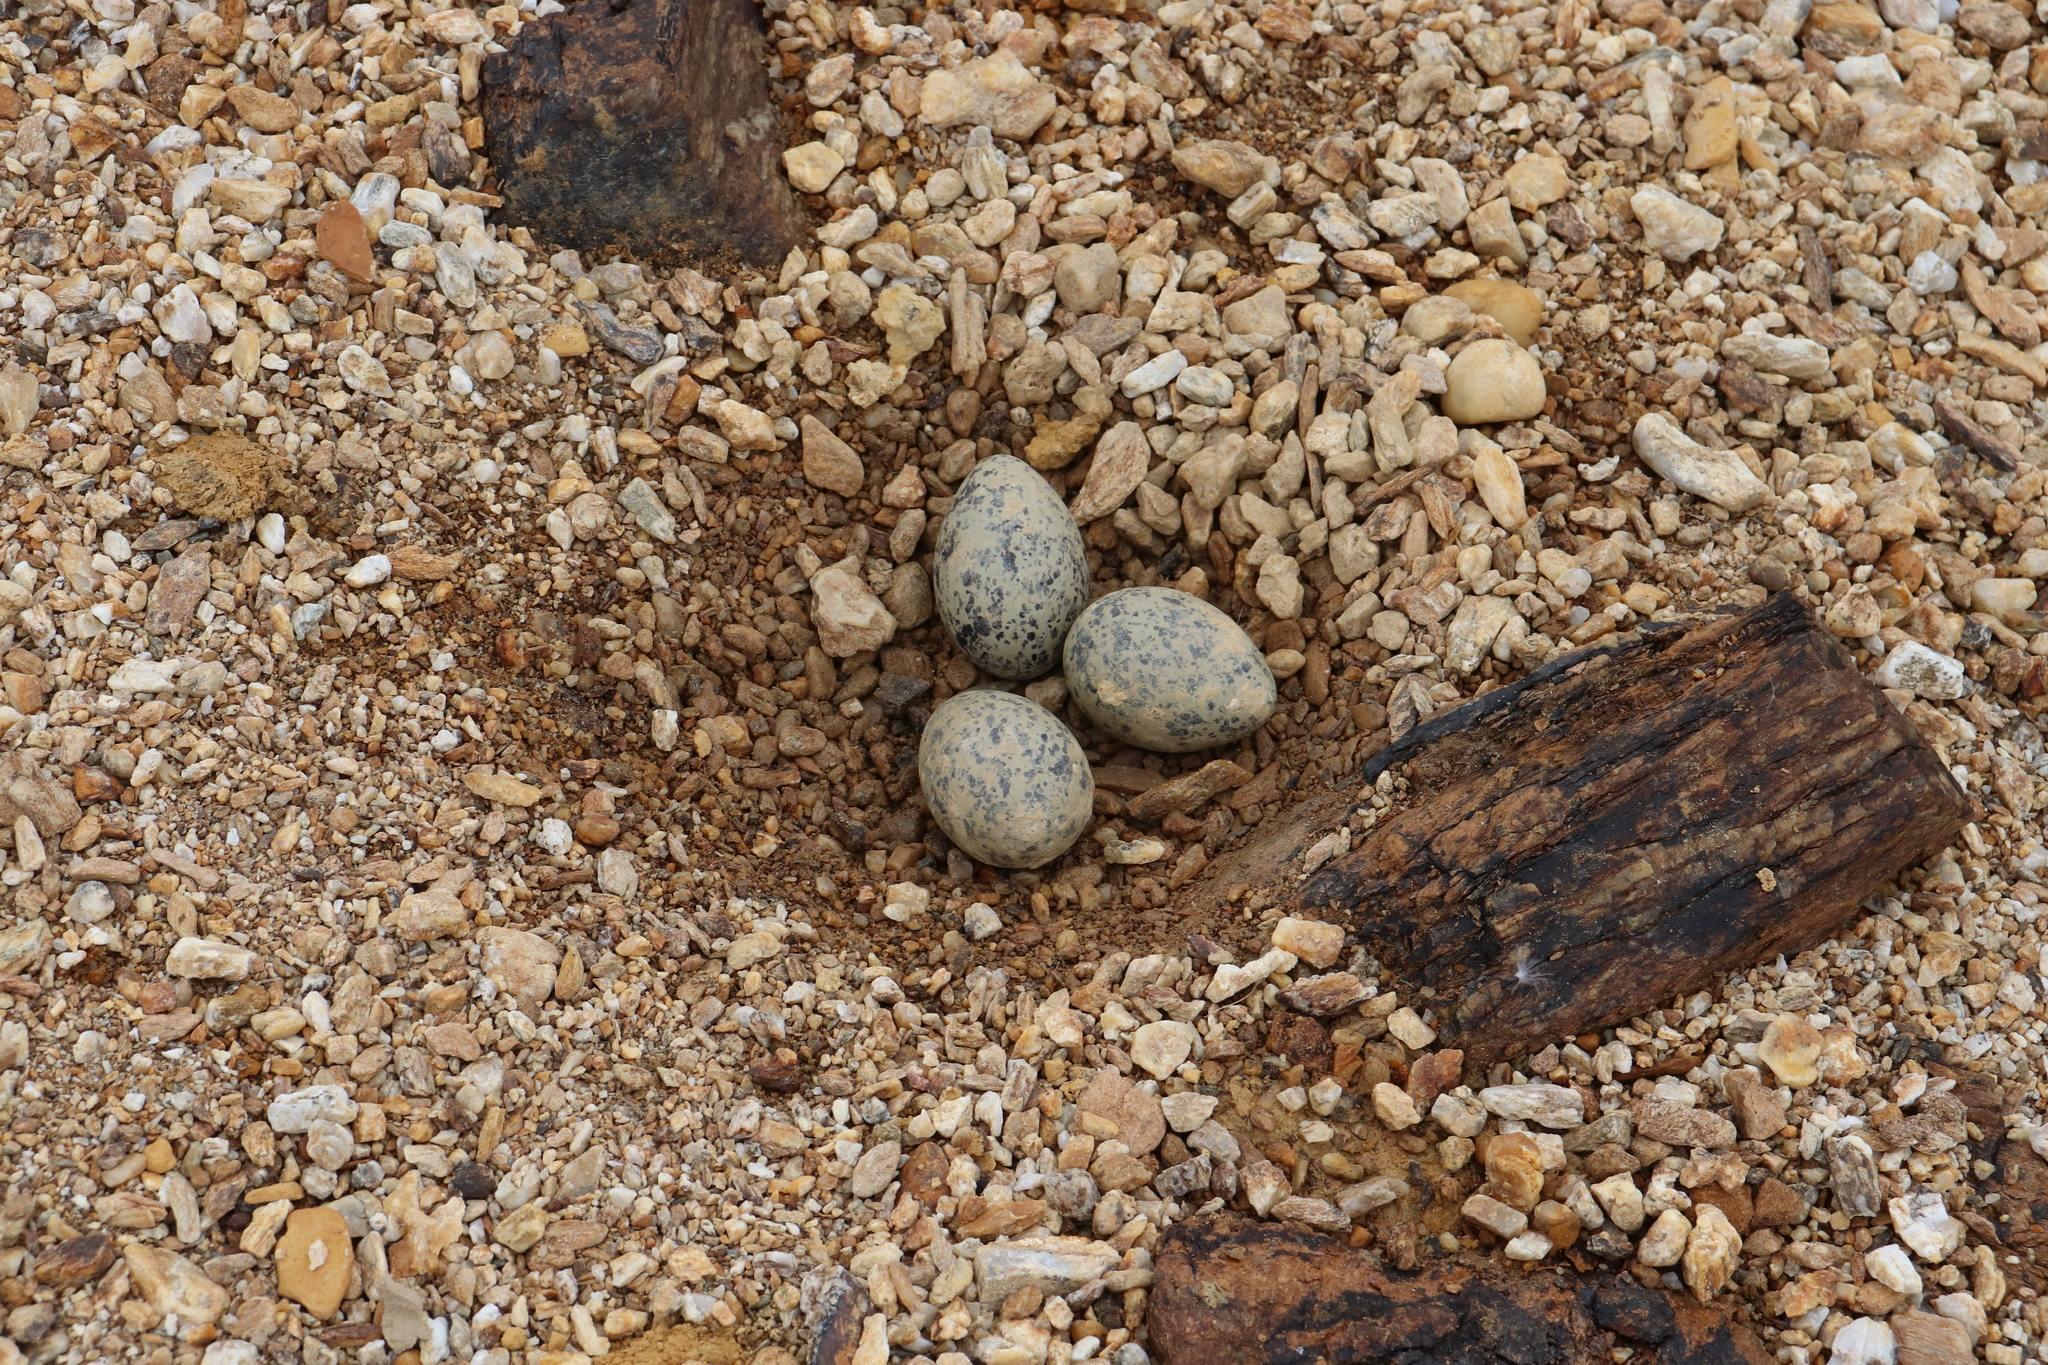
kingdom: Animalia
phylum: Chordata
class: Aves
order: Charadriiformes
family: Laridae
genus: Larus
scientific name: Larus dominicanus
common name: Kelp gull
